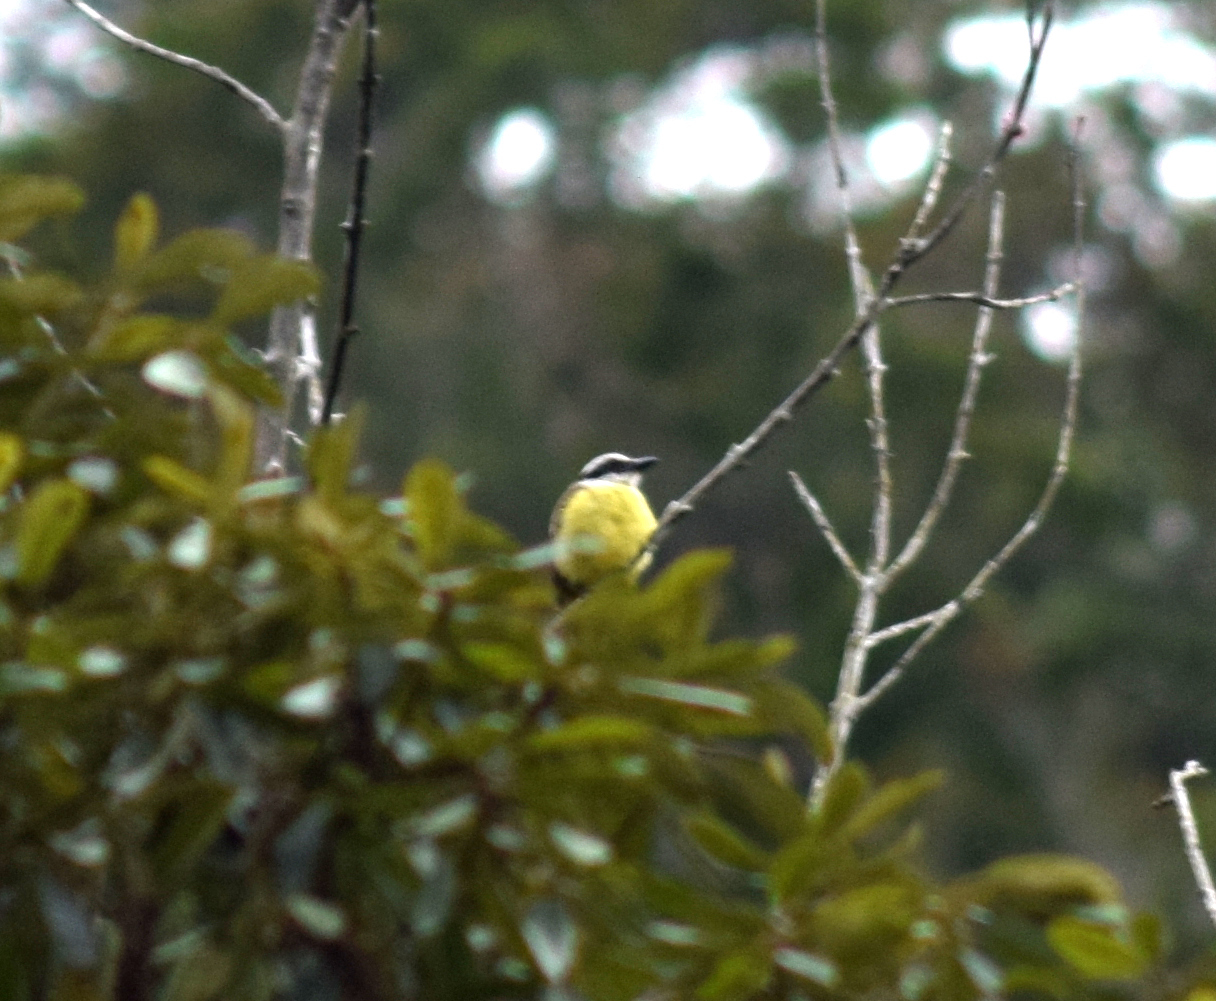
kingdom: Animalia
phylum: Chordata
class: Aves
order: Passeriformes
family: Tyrannidae
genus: Pitangus
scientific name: Pitangus sulphuratus
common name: Great kiskadee
